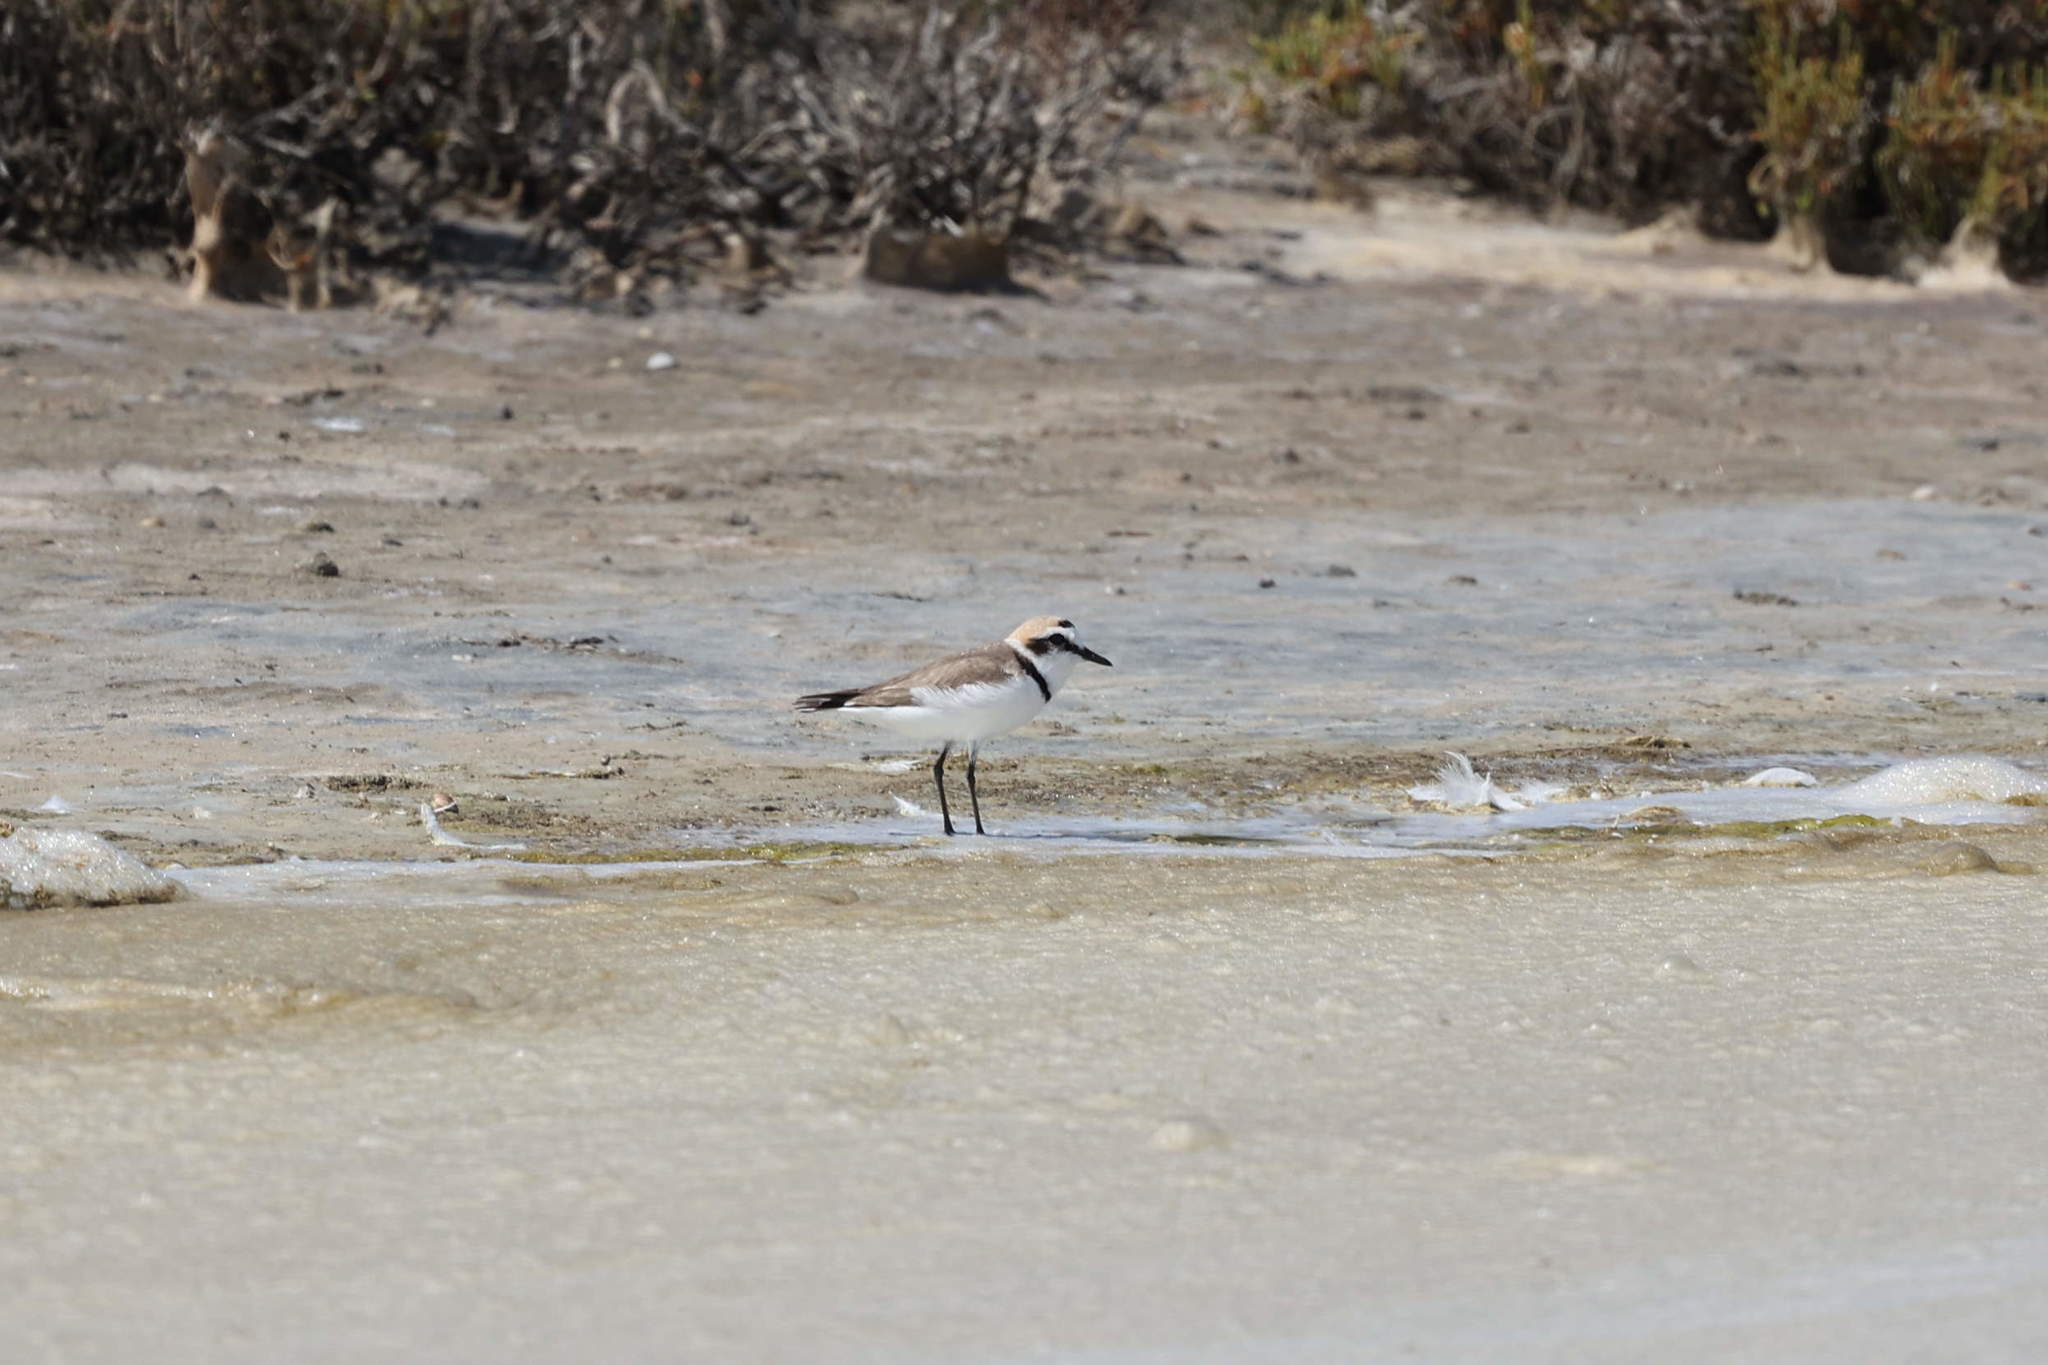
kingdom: Animalia
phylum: Chordata
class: Aves
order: Charadriiformes
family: Charadriidae
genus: Charadrius
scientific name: Charadrius alexandrinus
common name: Kentish plover
